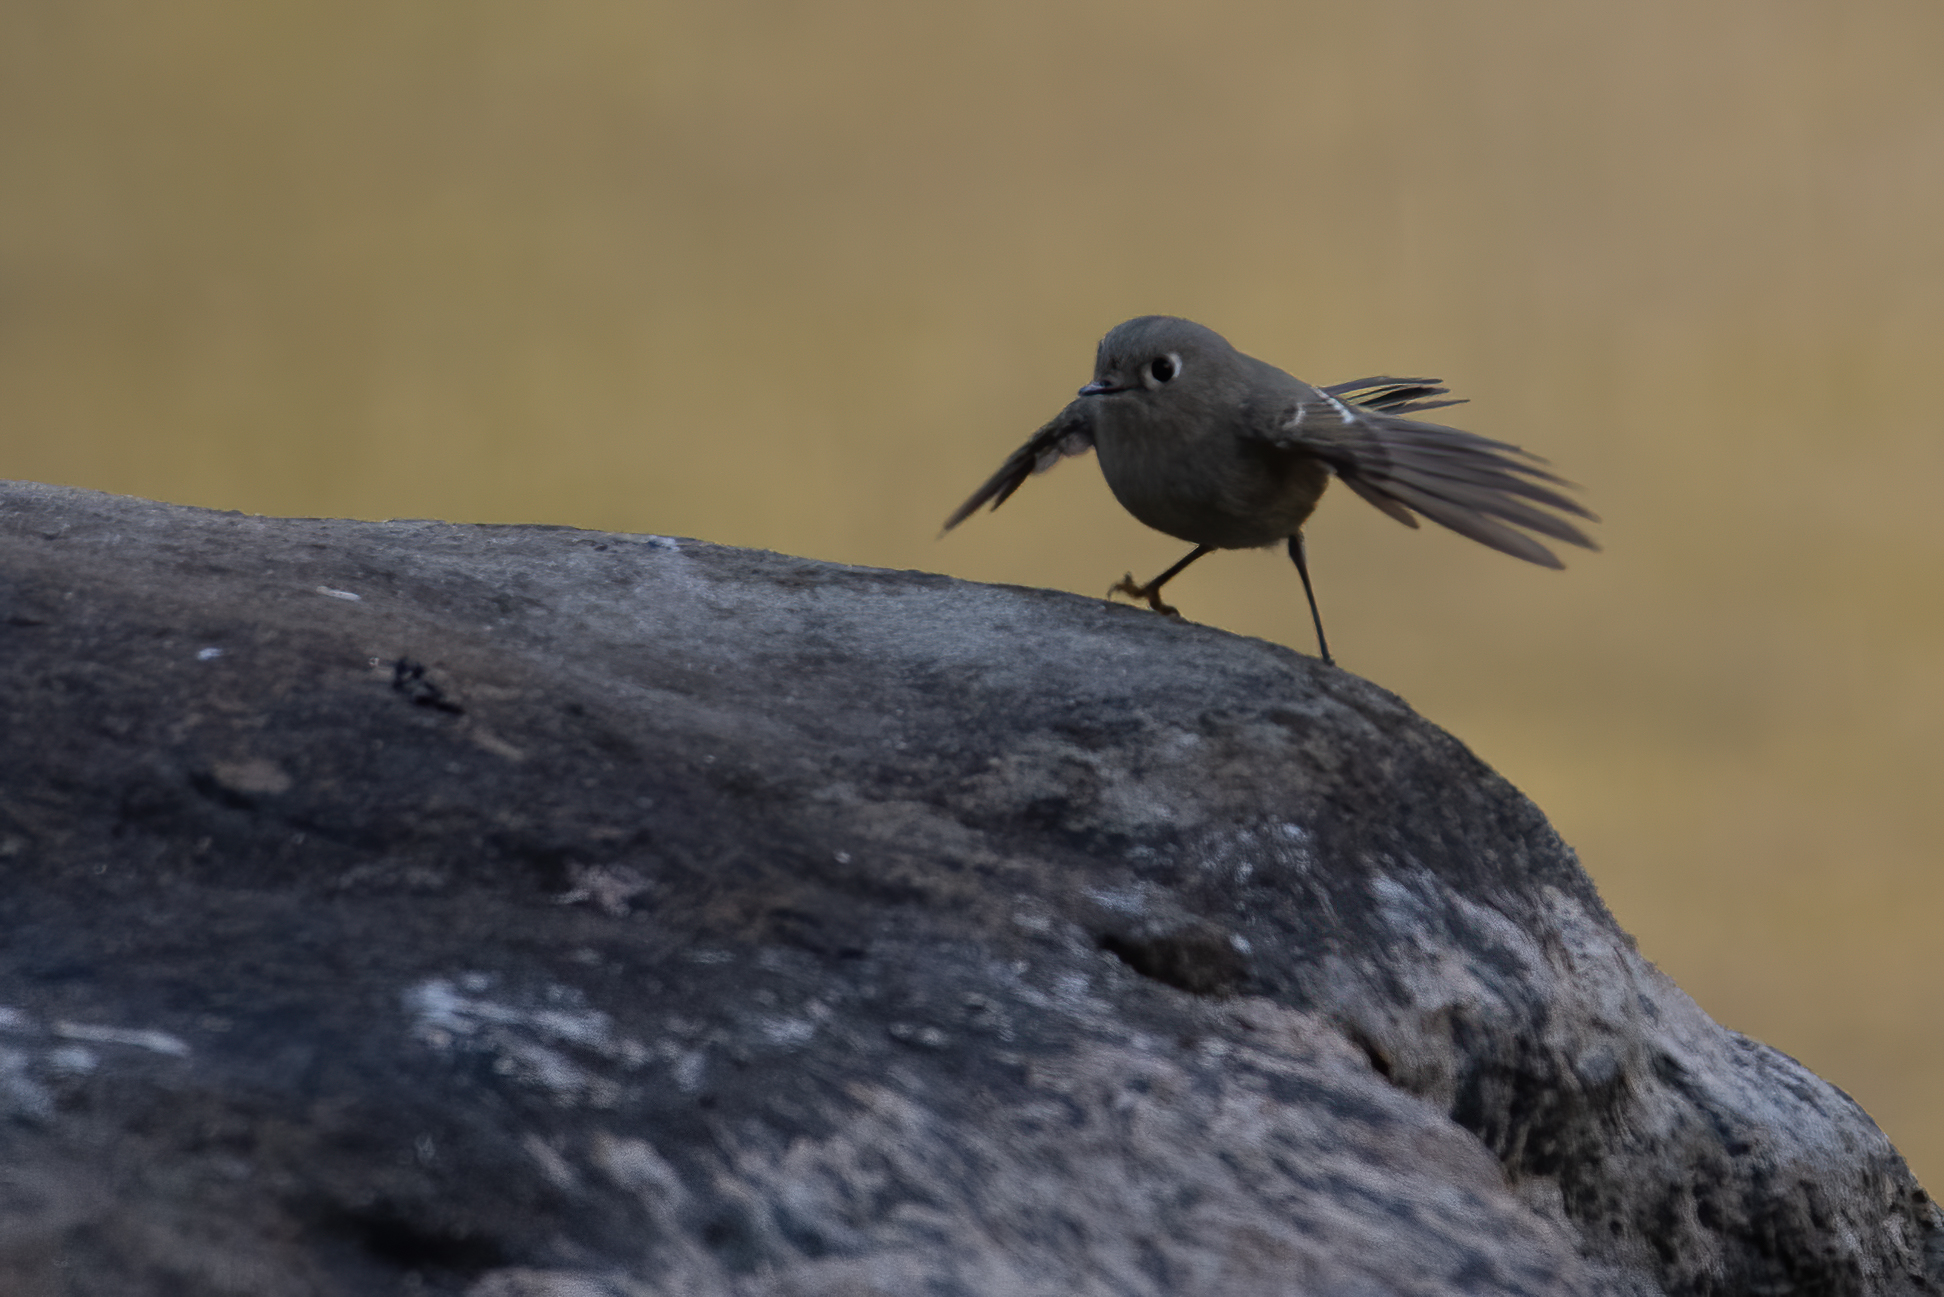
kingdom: Animalia
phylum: Chordata
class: Aves
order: Passeriformes
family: Regulidae
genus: Regulus
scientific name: Regulus calendula
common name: Ruby-crowned kinglet
